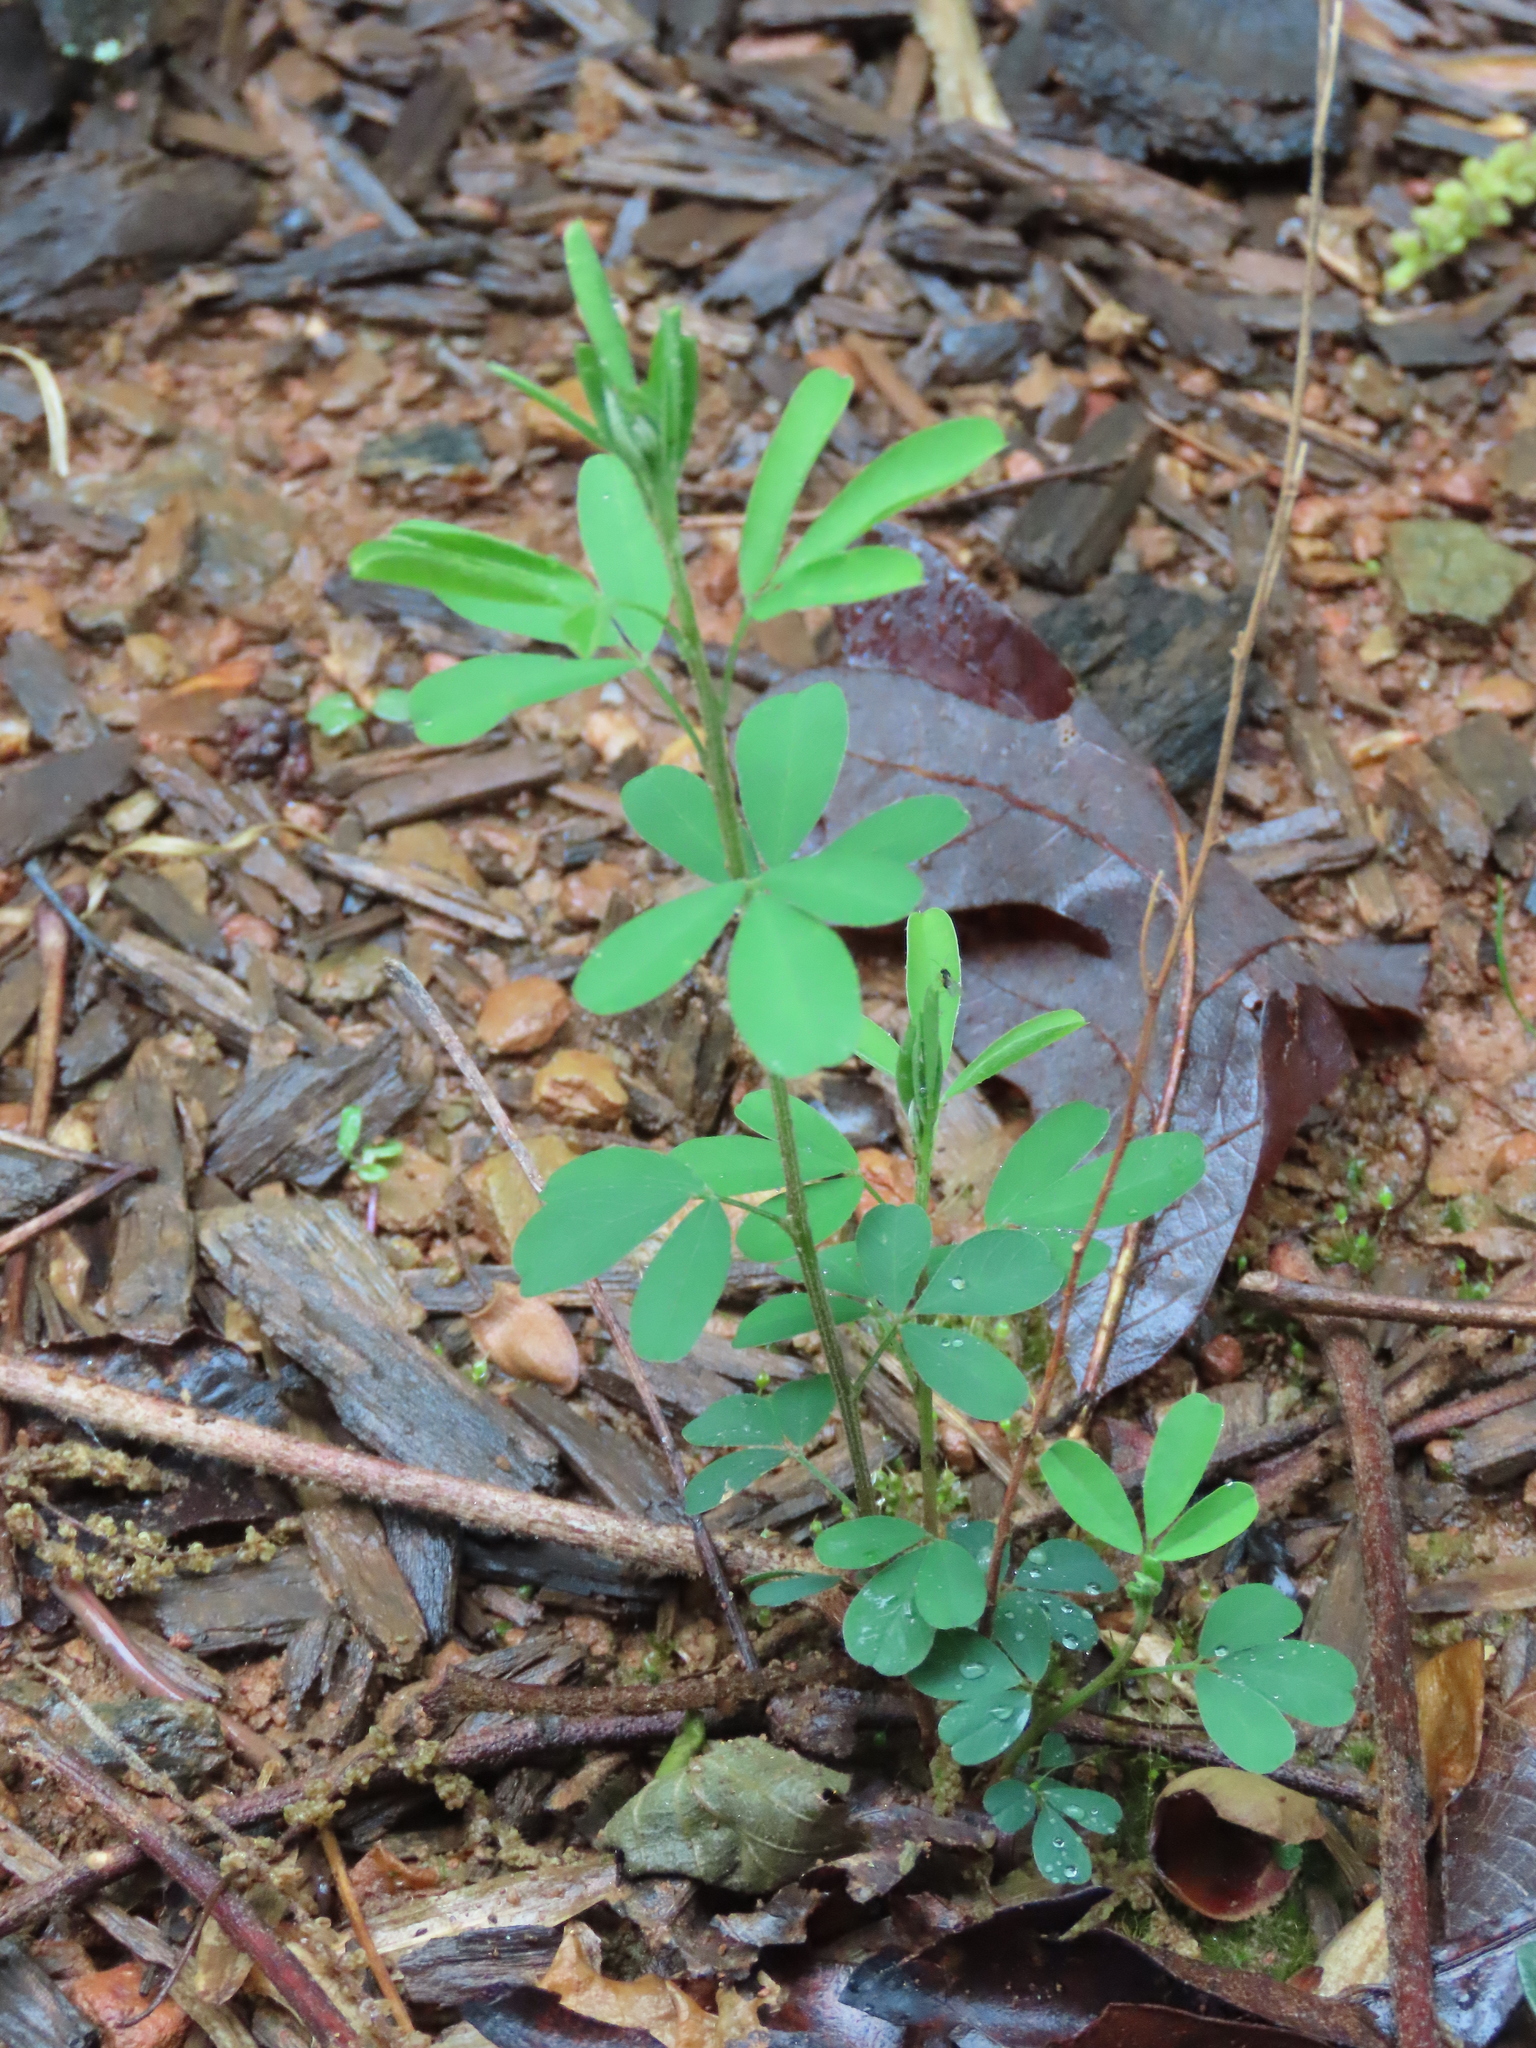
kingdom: Plantae
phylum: Tracheophyta
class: Magnoliopsida
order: Fabales
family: Fabaceae
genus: Lespedeza
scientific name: Lespedeza cuneata
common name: Chinese bush-clover
